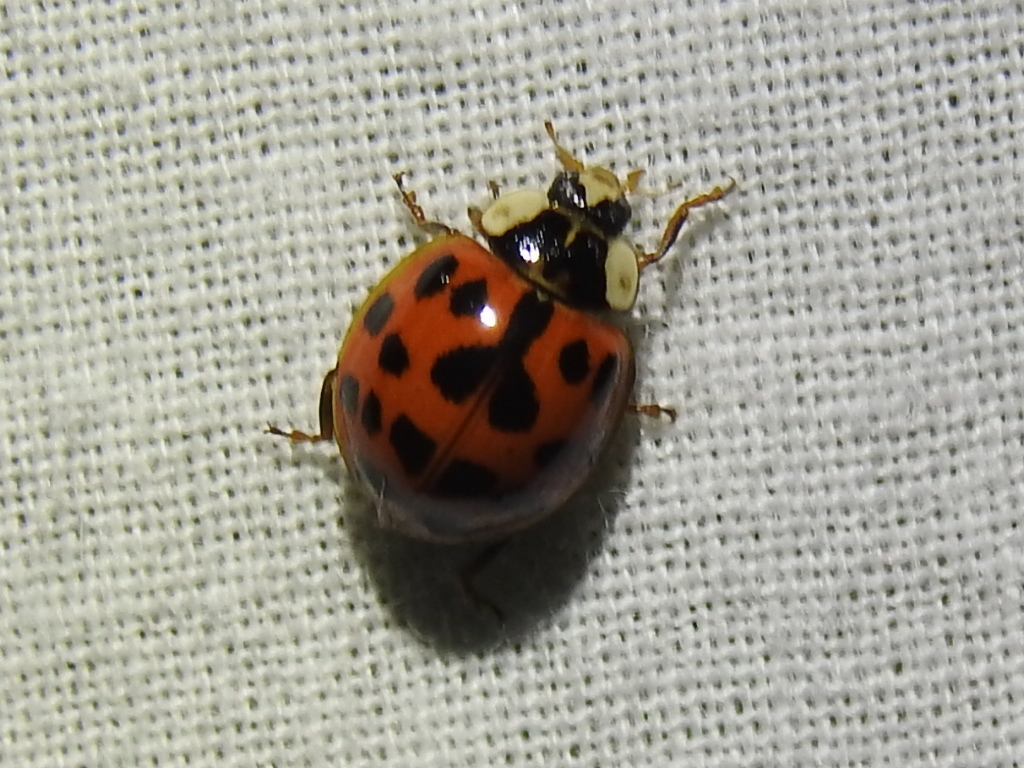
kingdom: Animalia
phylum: Arthropoda
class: Insecta
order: Coleoptera
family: Coccinellidae
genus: Harmonia
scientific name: Harmonia axyridis
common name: Harlequin ladybird
